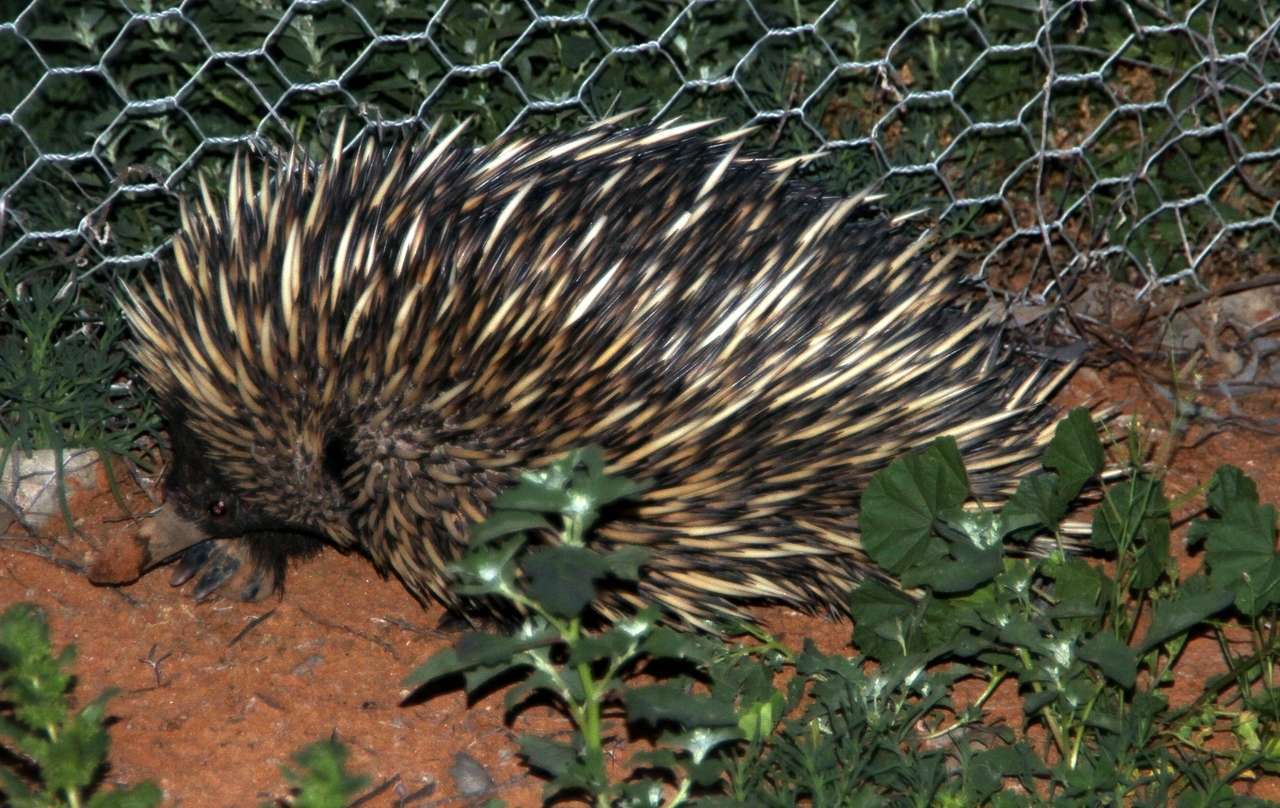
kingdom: Animalia
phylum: Chordata
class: Mammalia
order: Monotremata
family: Tachyglossidae
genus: Tachyglossus
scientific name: Tachyglossus aculeatus
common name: Short-beaked echidna
